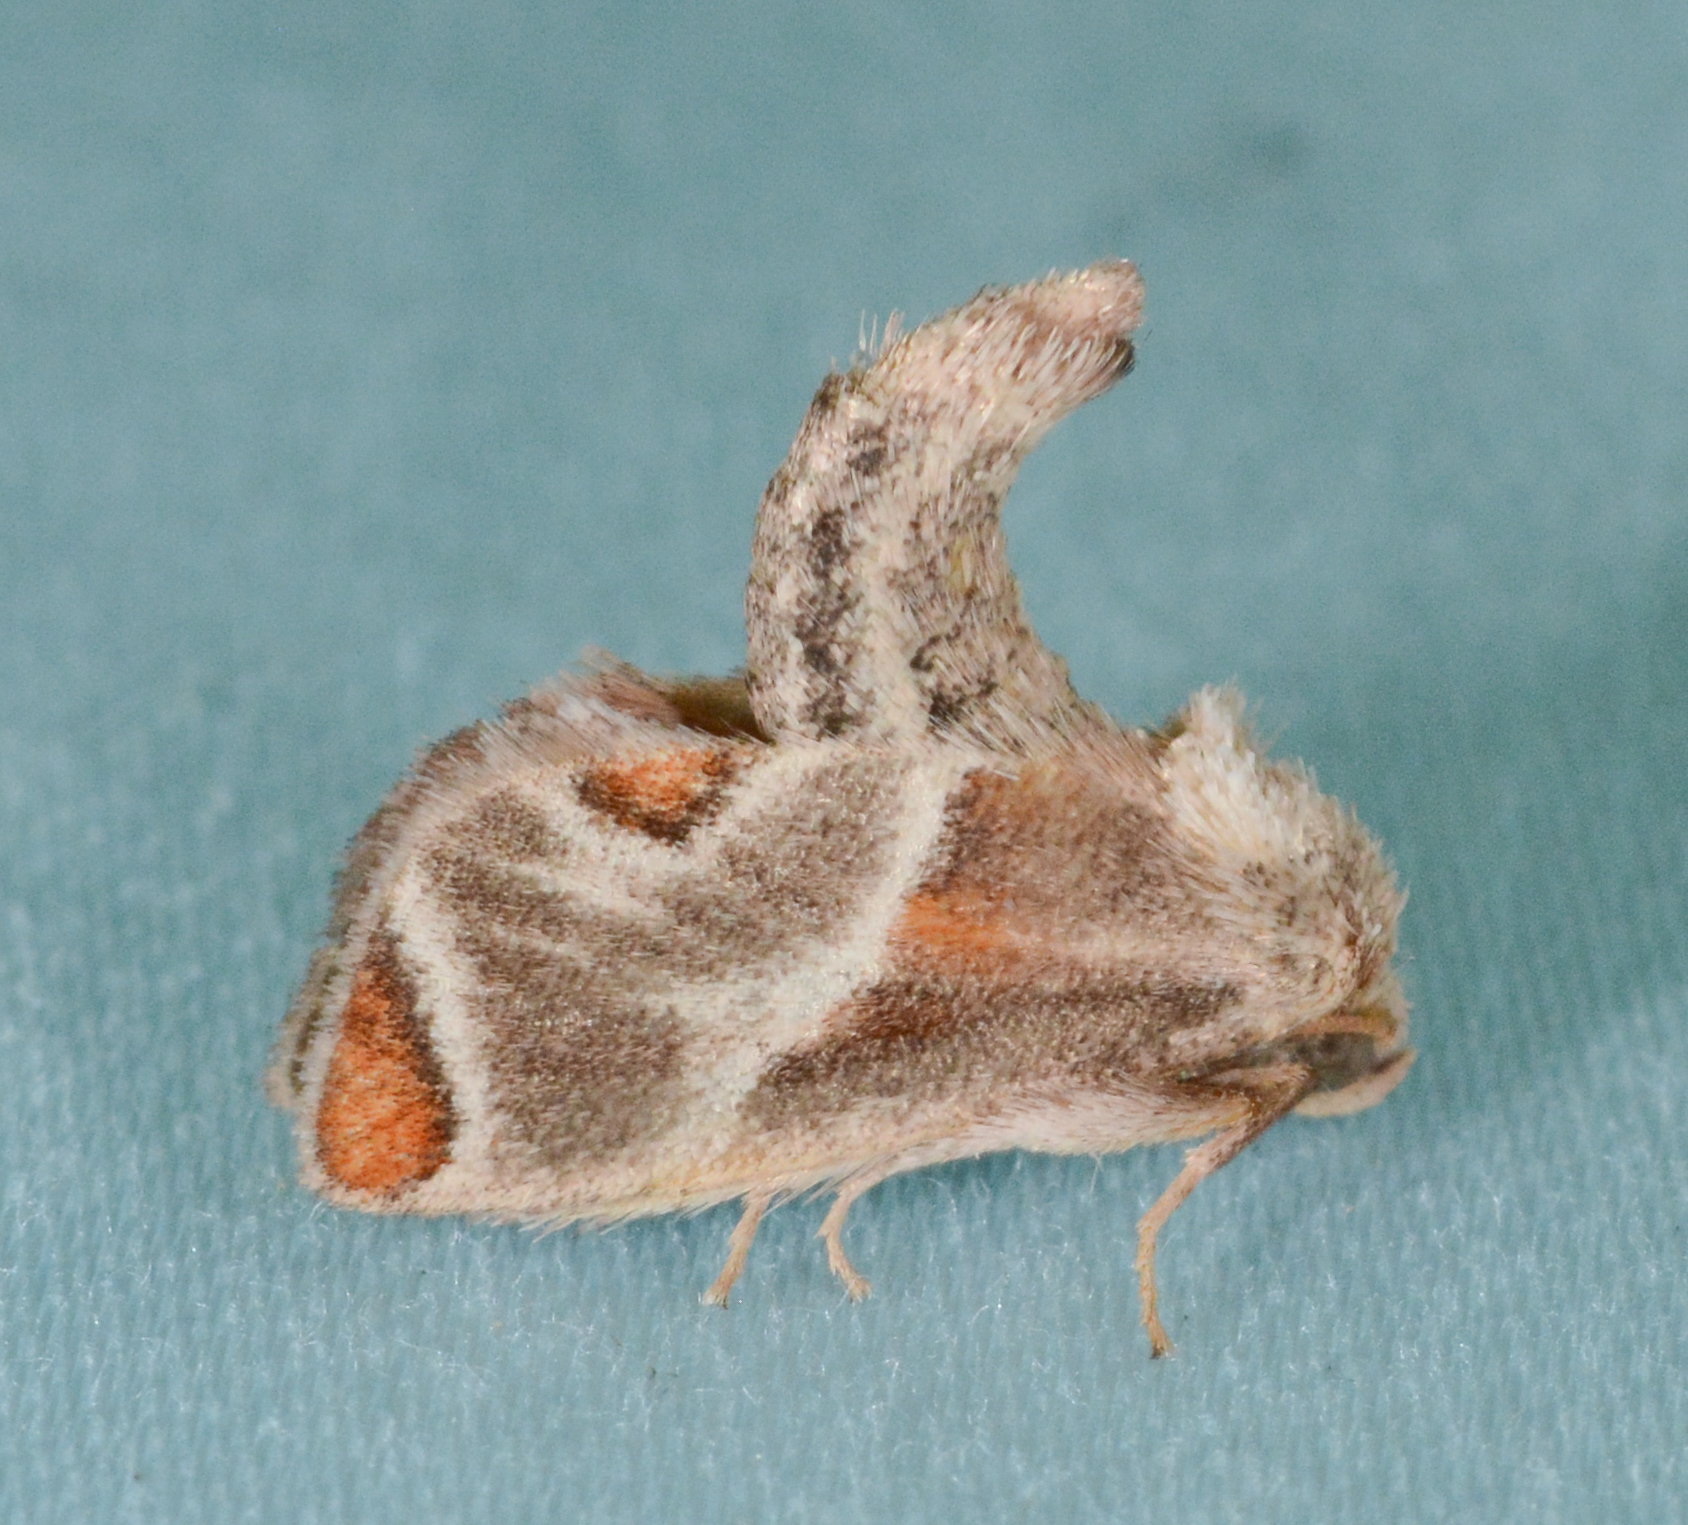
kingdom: Animalia
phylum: Arthropoda
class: Insecta
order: Lepidoptera
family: Limacodidae
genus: Apoda
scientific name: Apoda biguttata
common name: Shagreened slug moth
